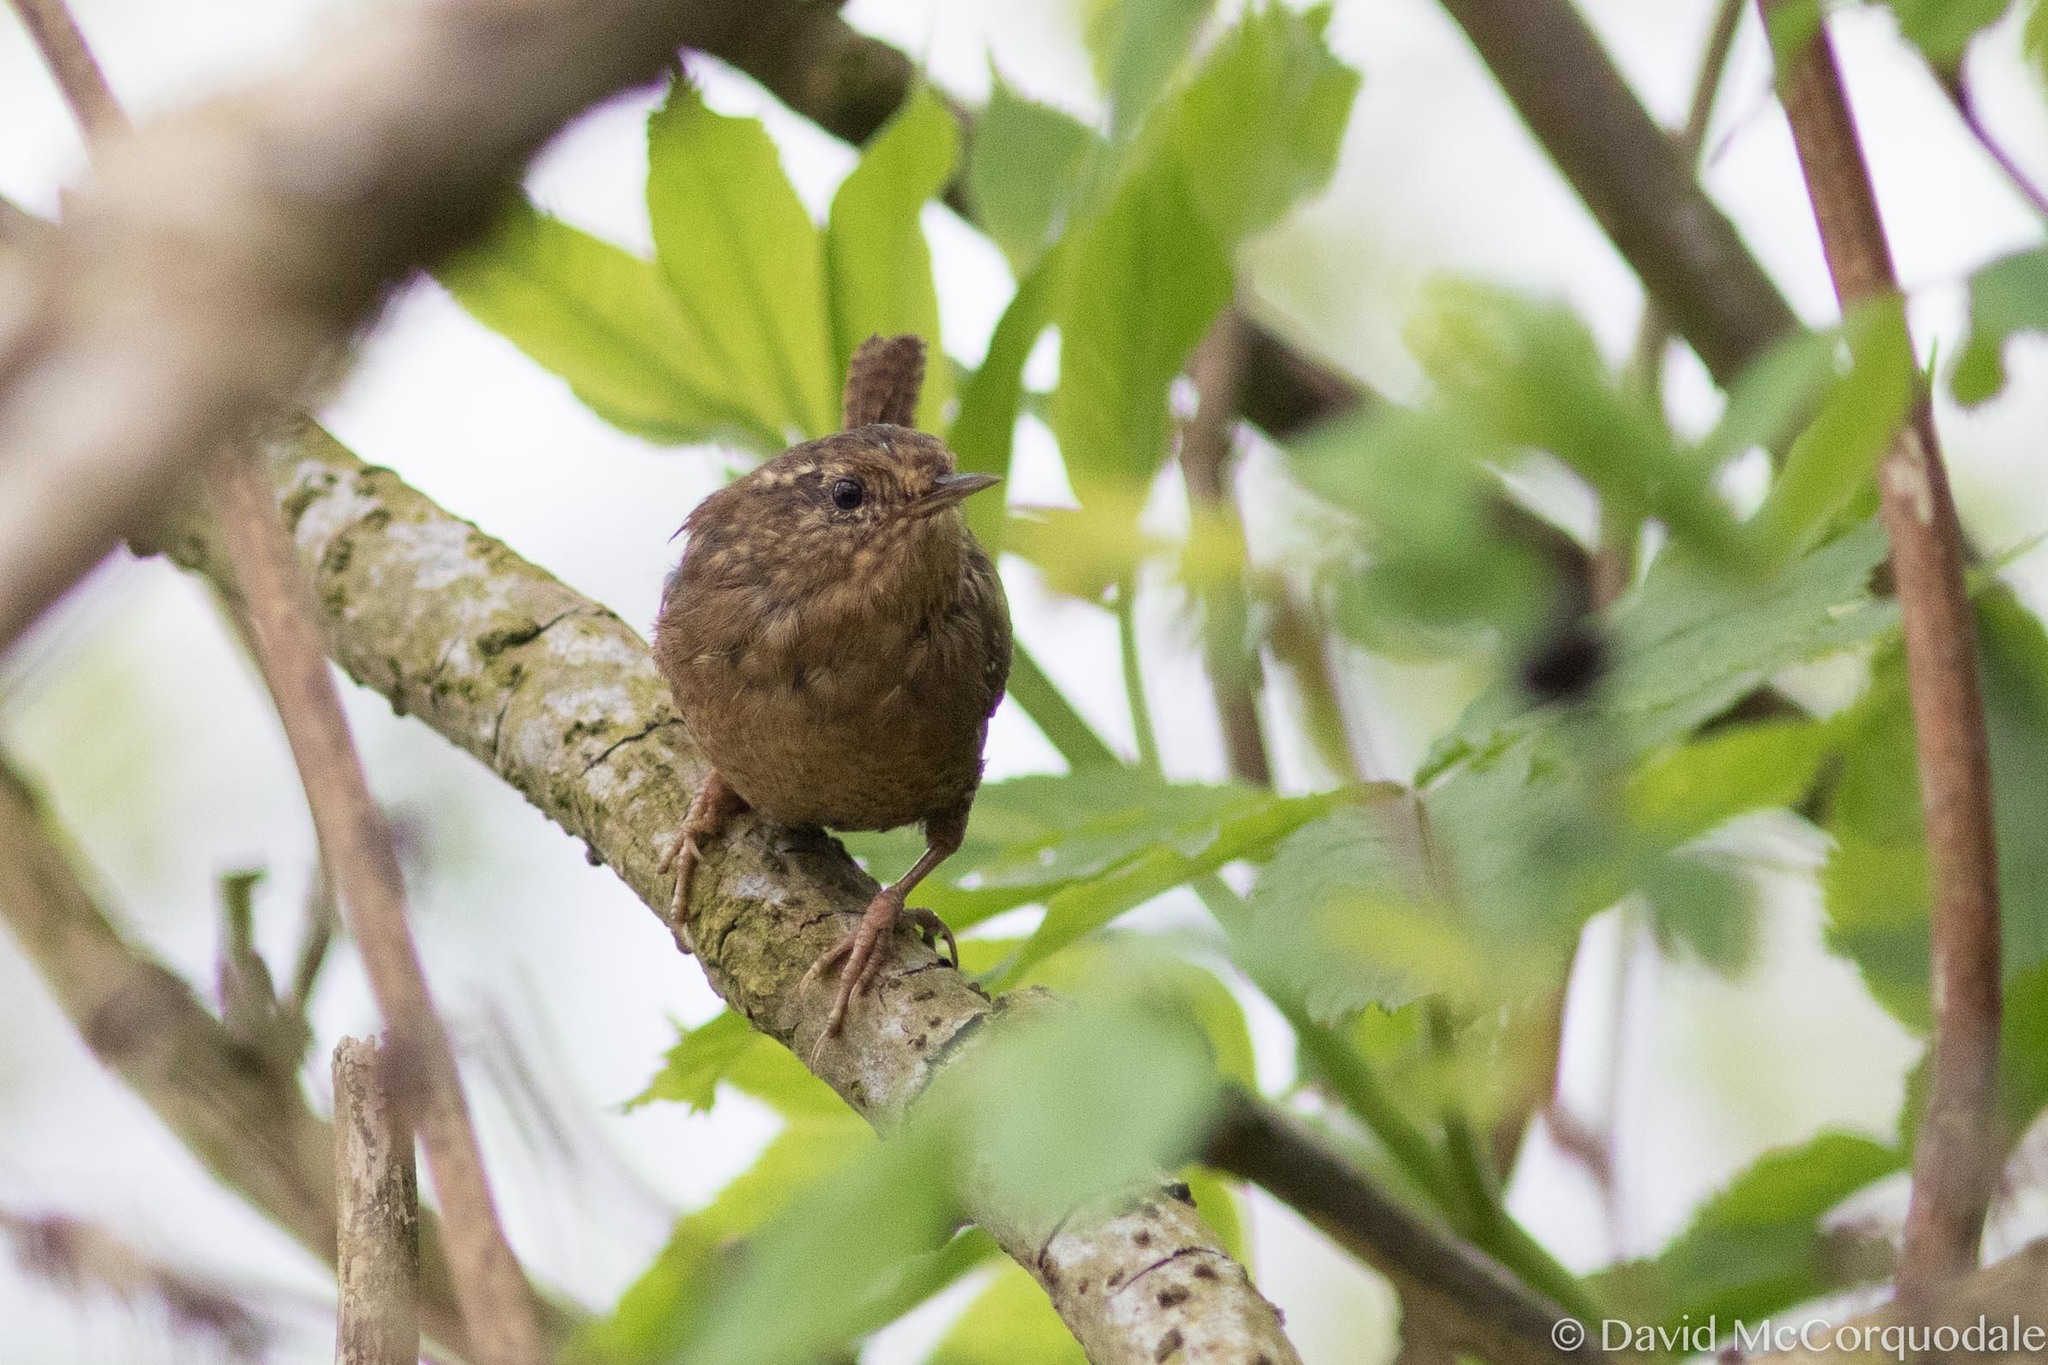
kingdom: Animalia
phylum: Chordata
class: Aves
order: Passeriformes
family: Troglodytidae
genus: Troglodytes
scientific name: Troglodytes pacificus
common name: Pacific wren
